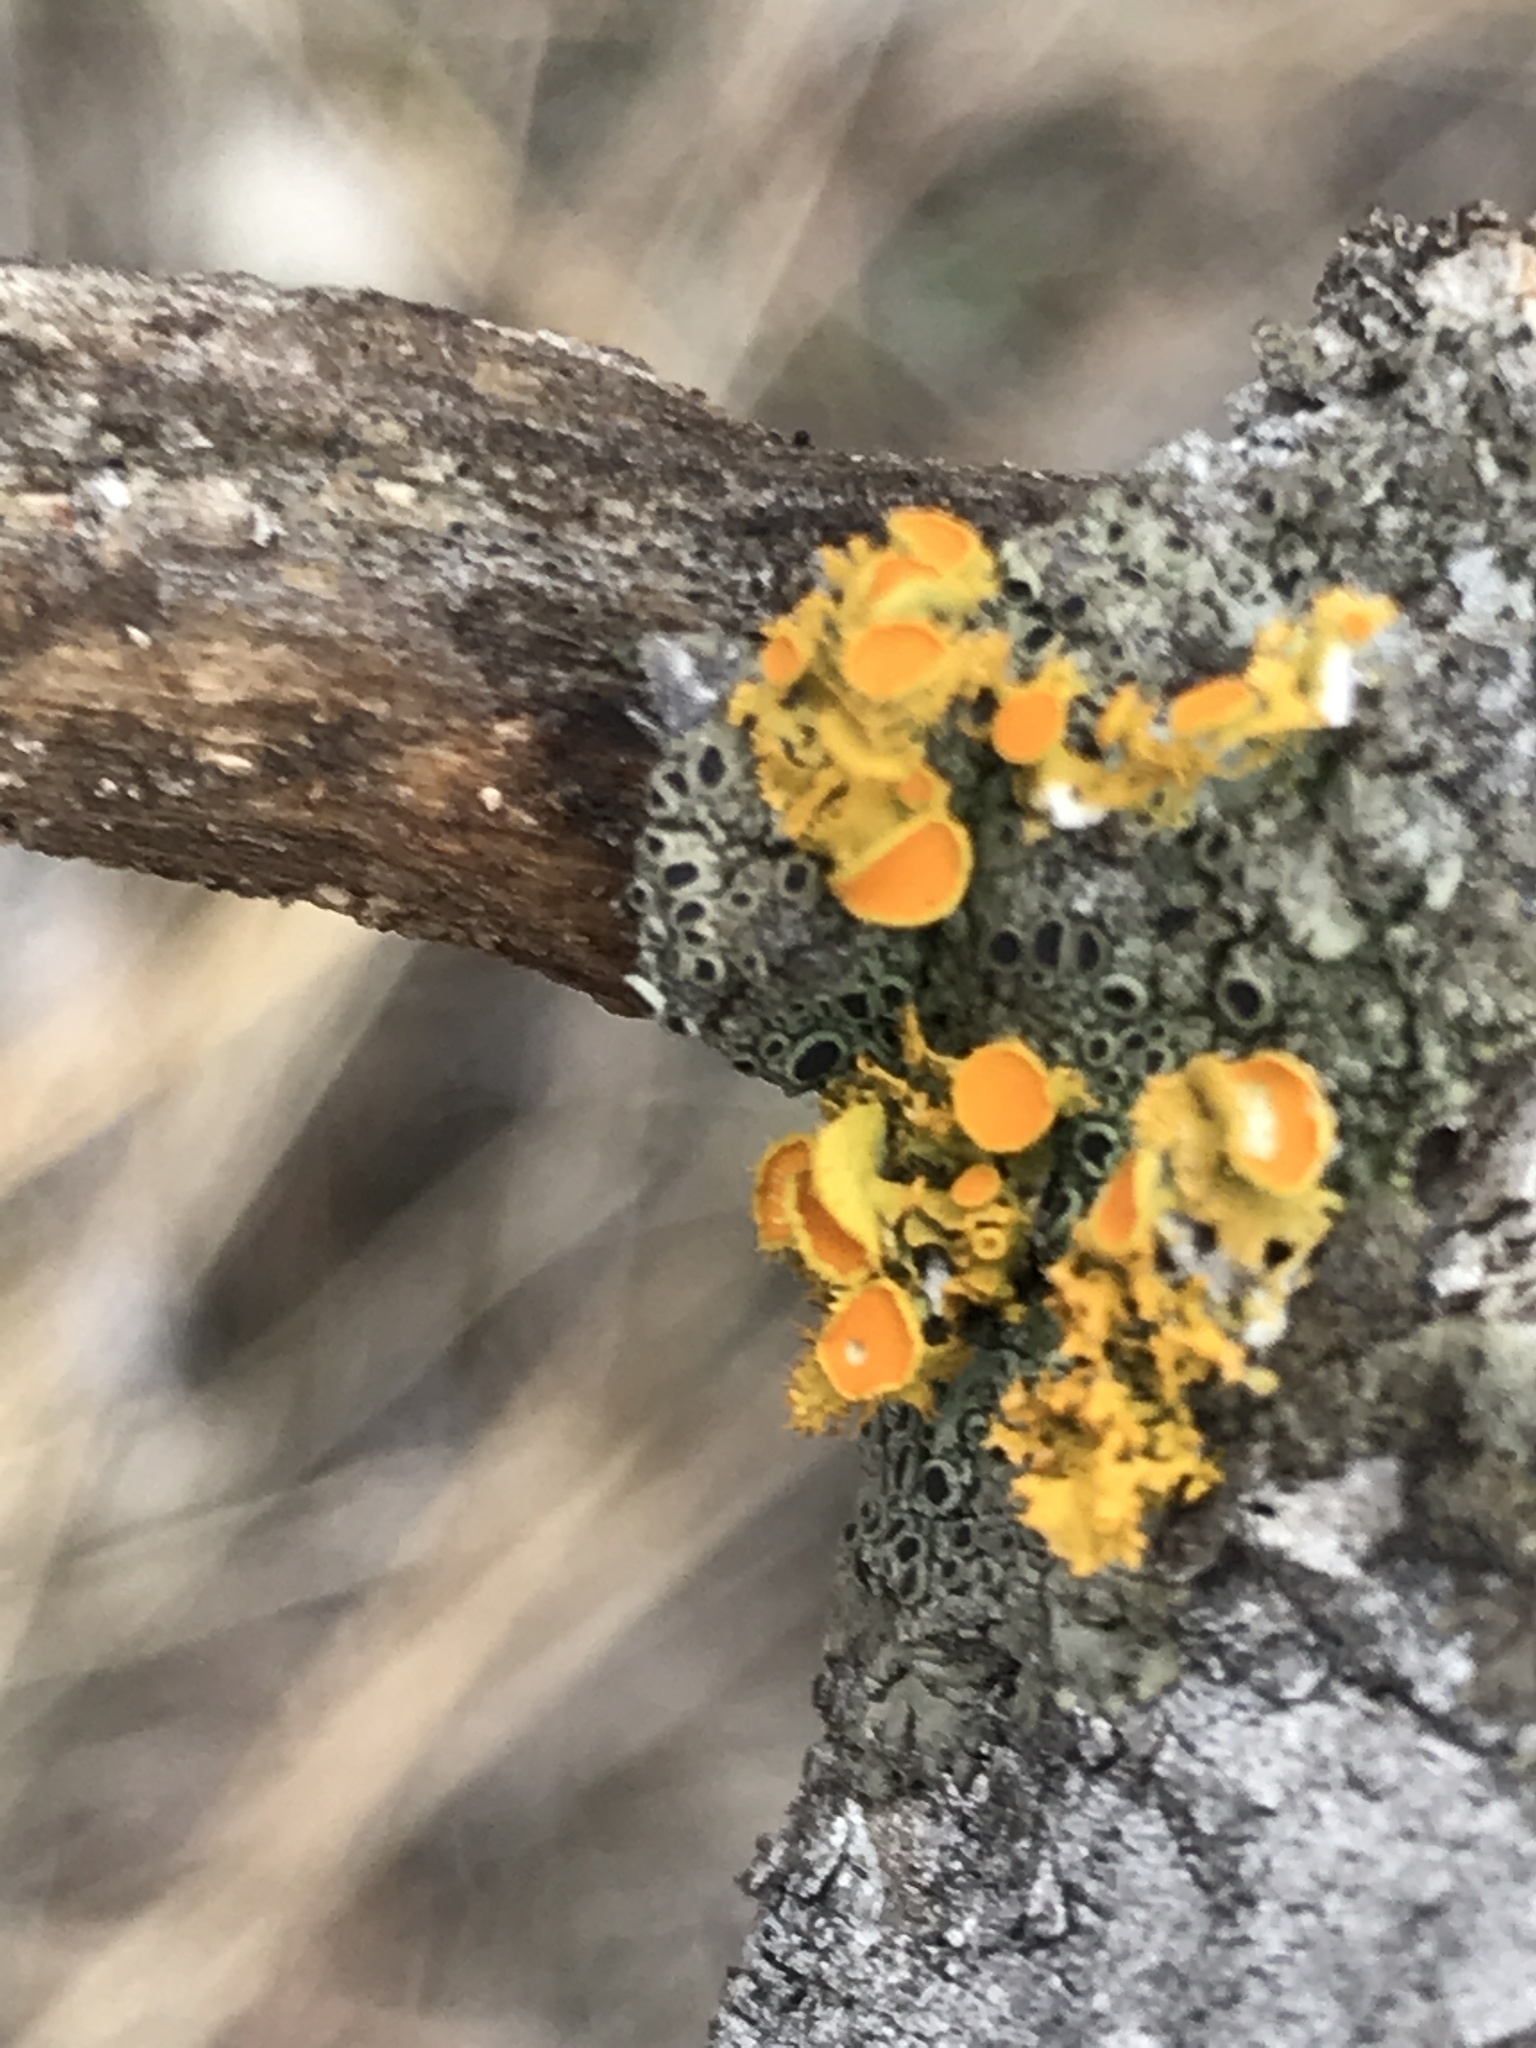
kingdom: Fungi
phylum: Ascomycota
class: Lecanoromycetes
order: Teloschistales
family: Teloschistaceae
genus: Niorma
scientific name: Niorma chrysophthalma
